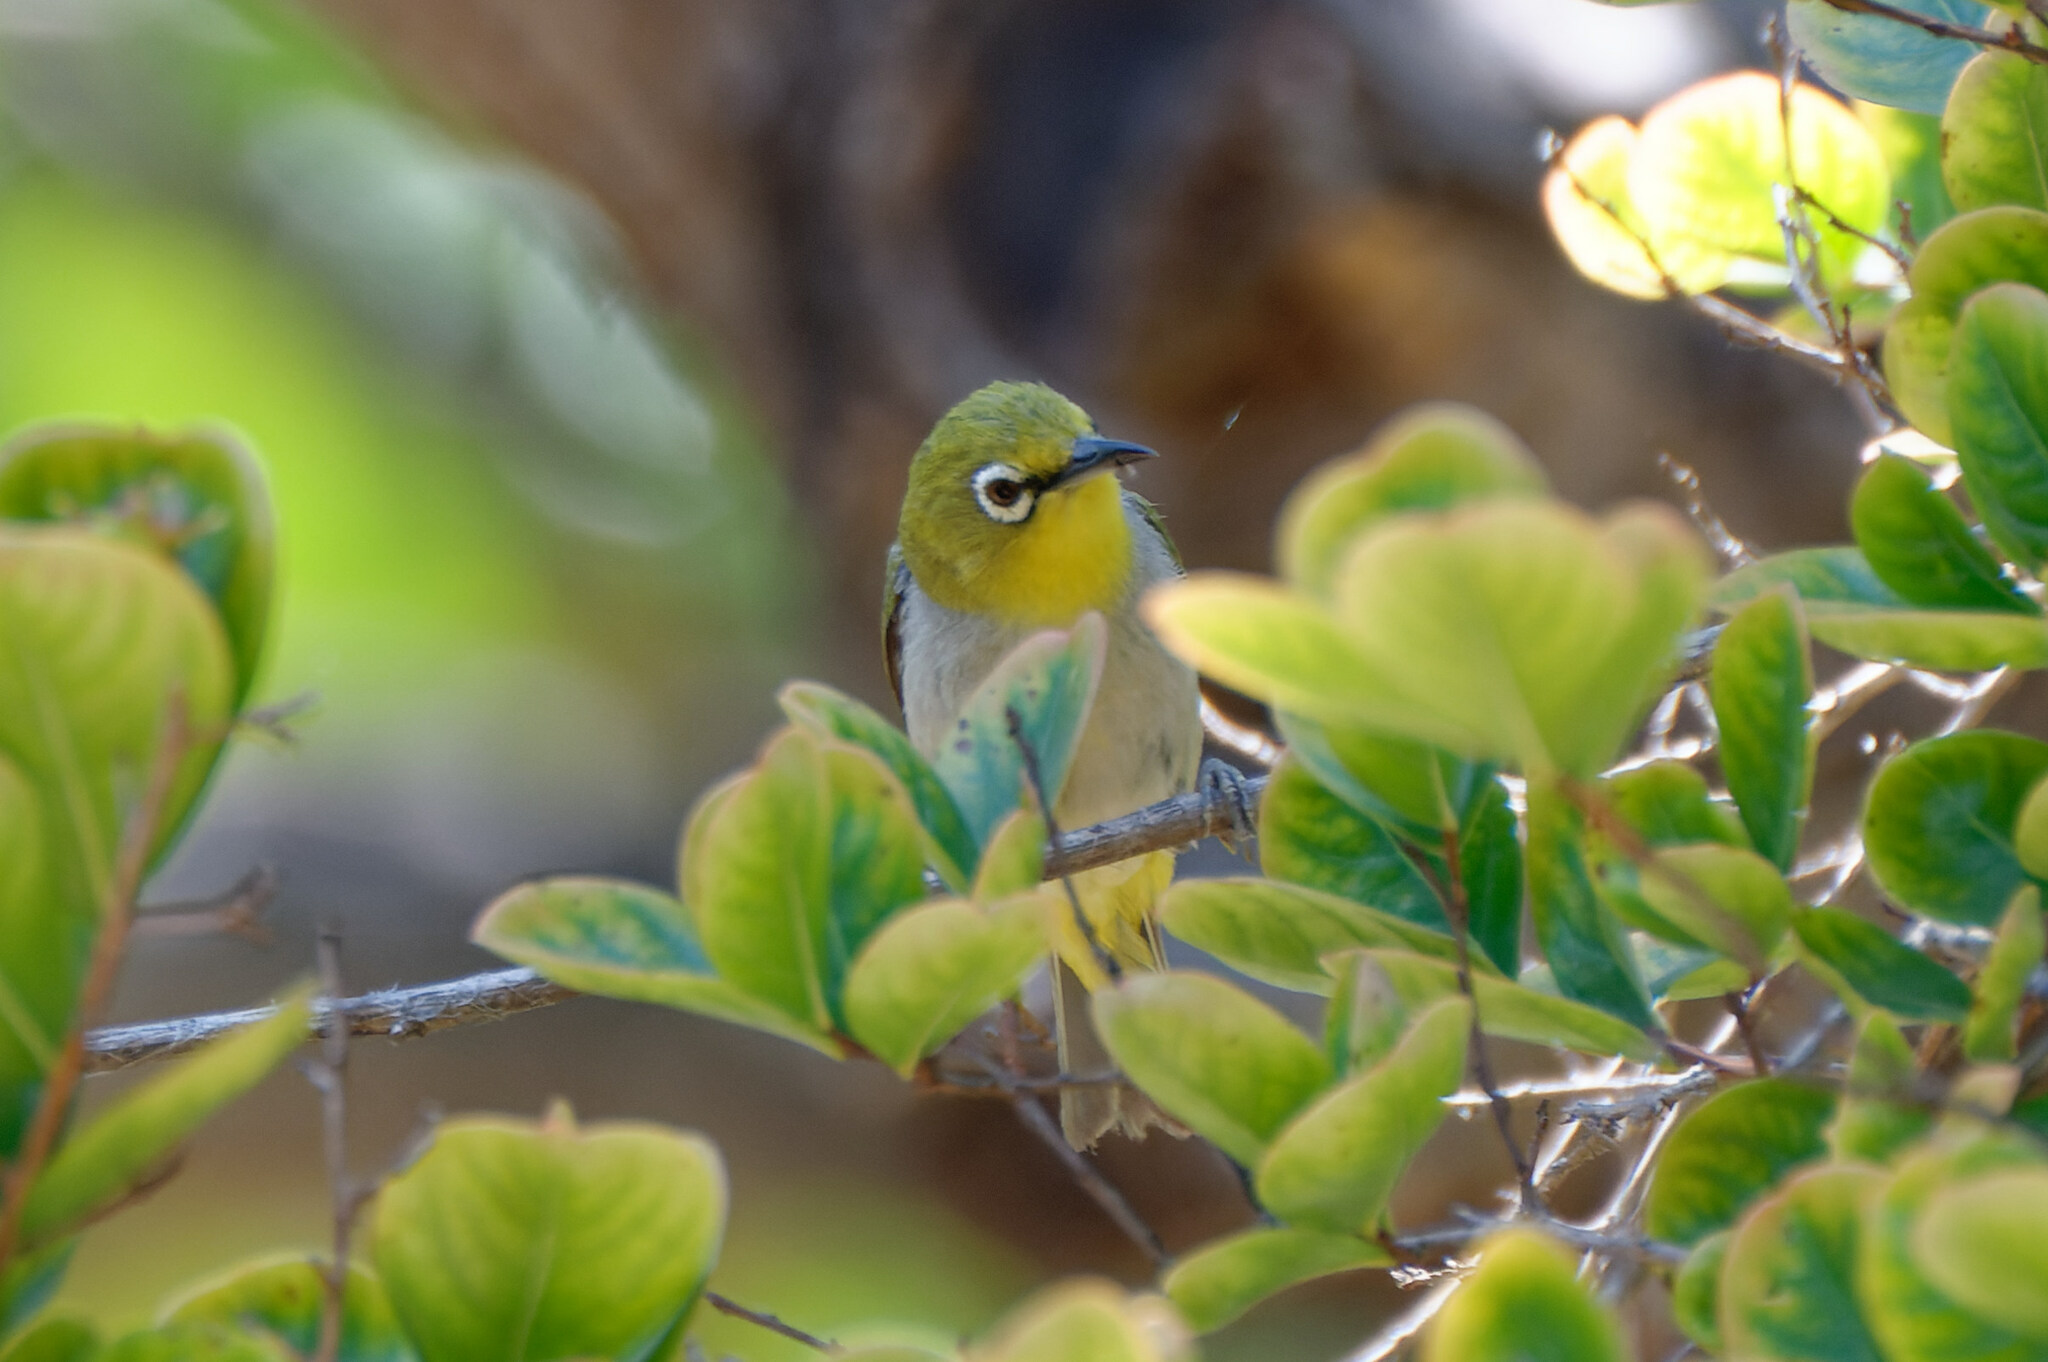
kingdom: Animalia
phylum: Chordata
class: Aves
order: Passeriformes
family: Zosteropidae
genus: Zosterops
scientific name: Zosterops simplex
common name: Swinhoe's white-eye
